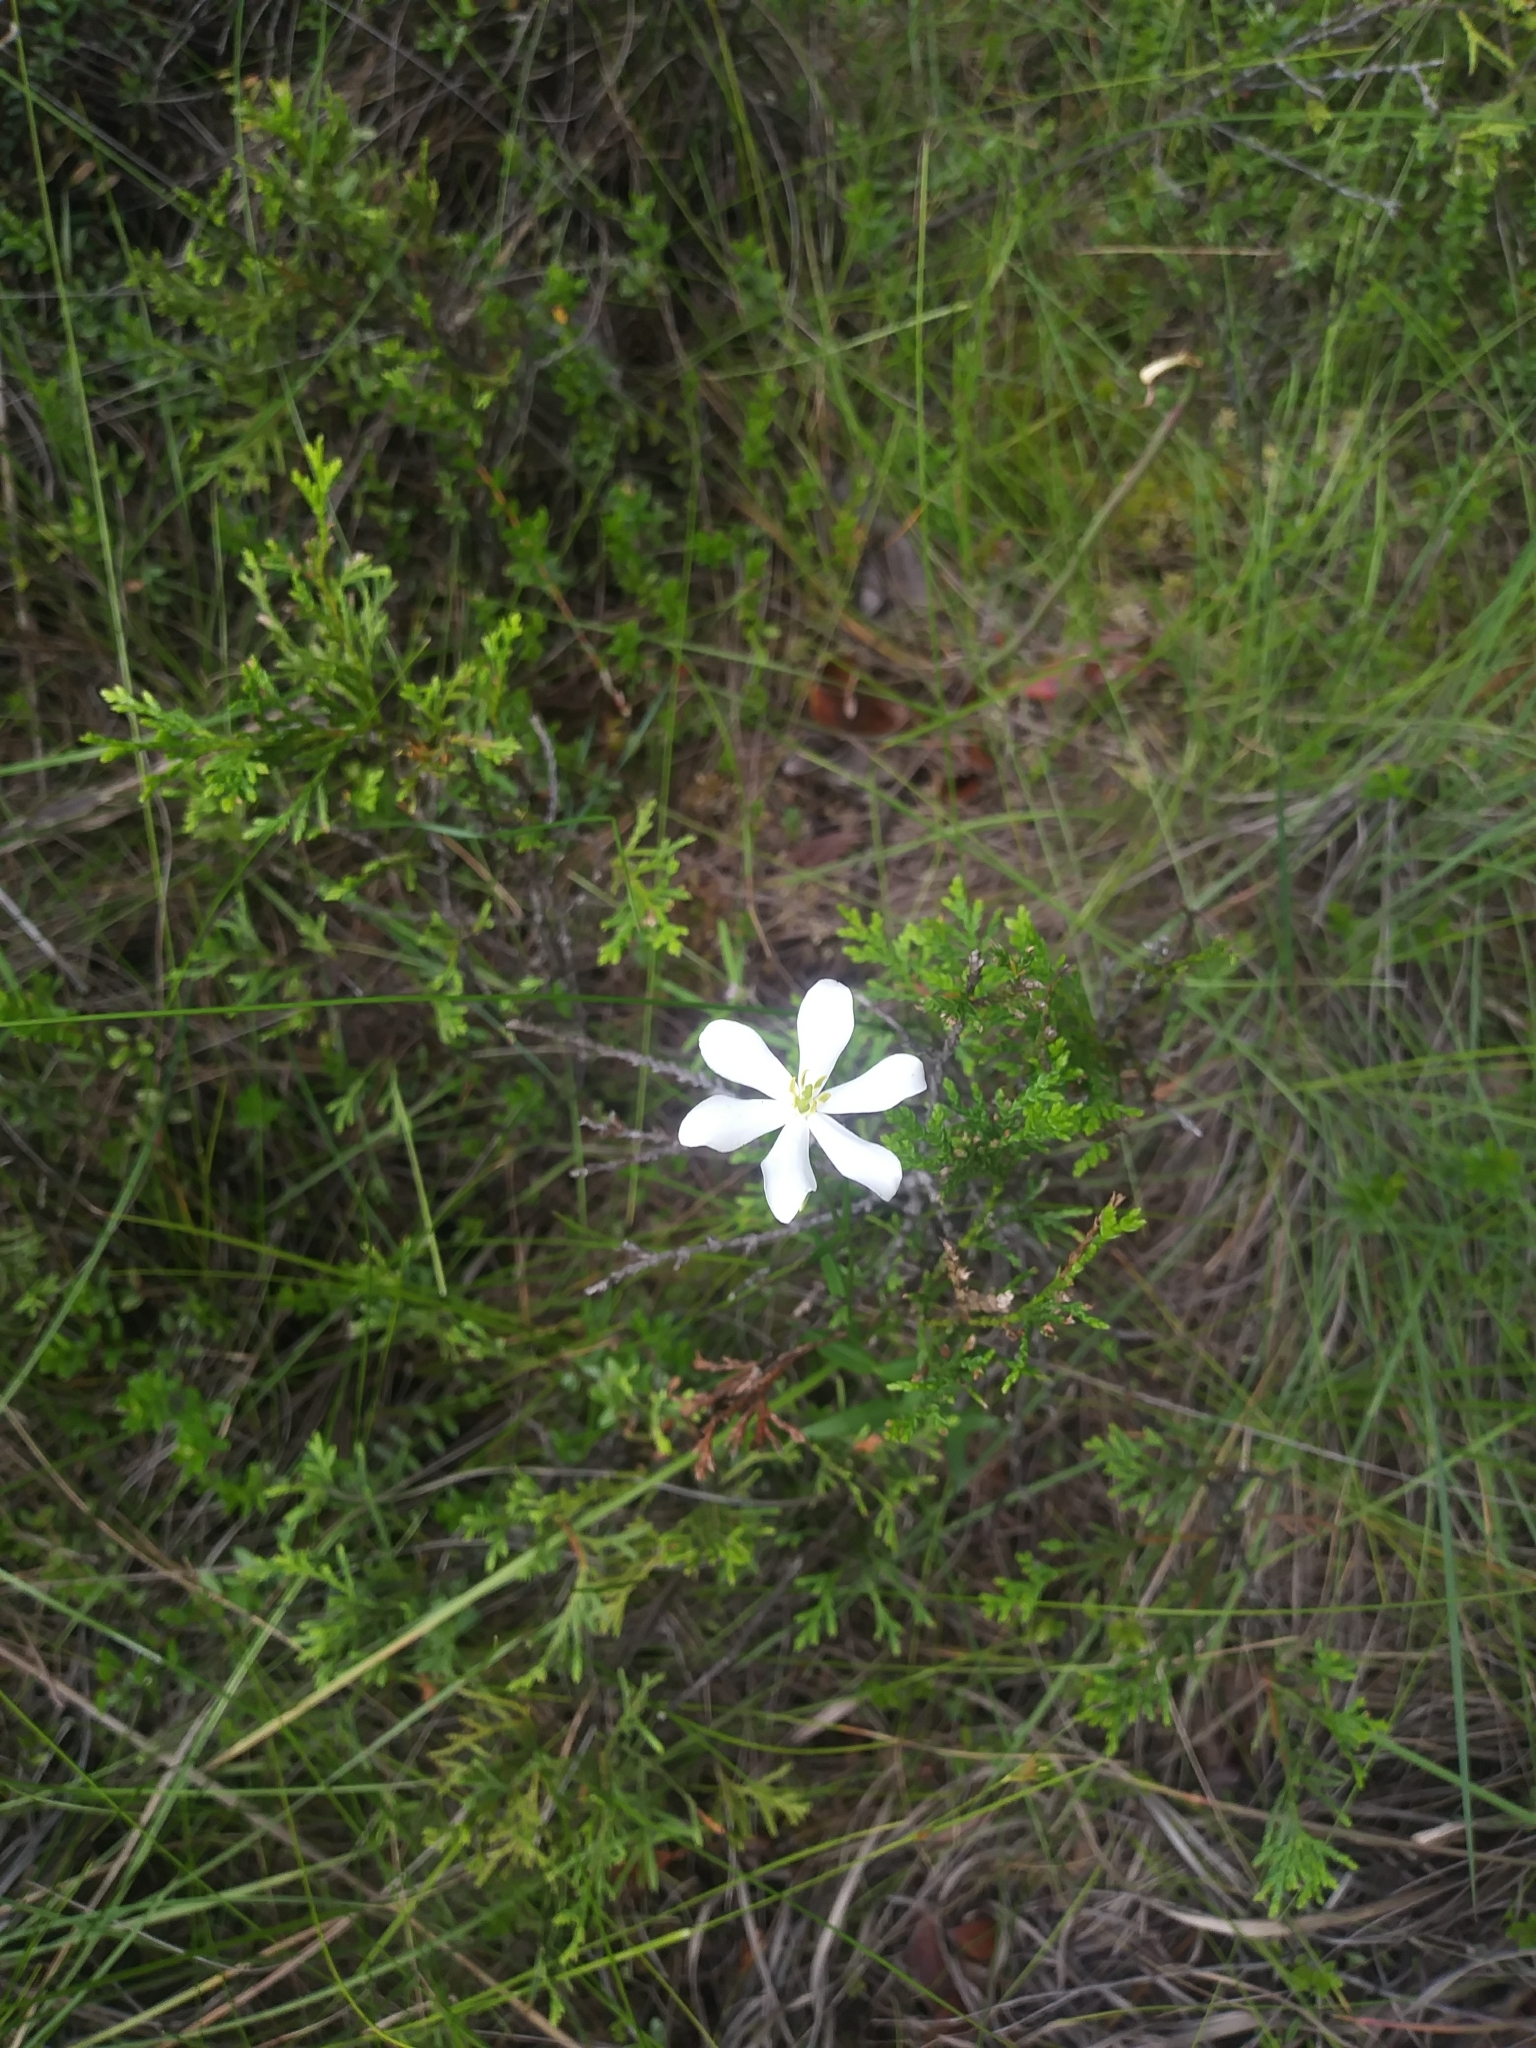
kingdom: Plantae
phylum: Tracheophyta
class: Magnoliopsida
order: Gentianales
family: Gentianaceae
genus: Sabatia
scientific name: Sabatia difformis
